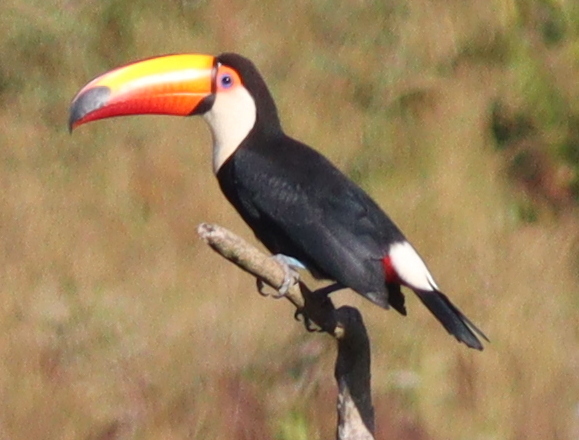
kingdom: Animalia
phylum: Chordata
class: Aves
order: Piciformes
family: Ramphastidae
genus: Ramphastos
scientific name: Ramphastos toco
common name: Toco toucan
